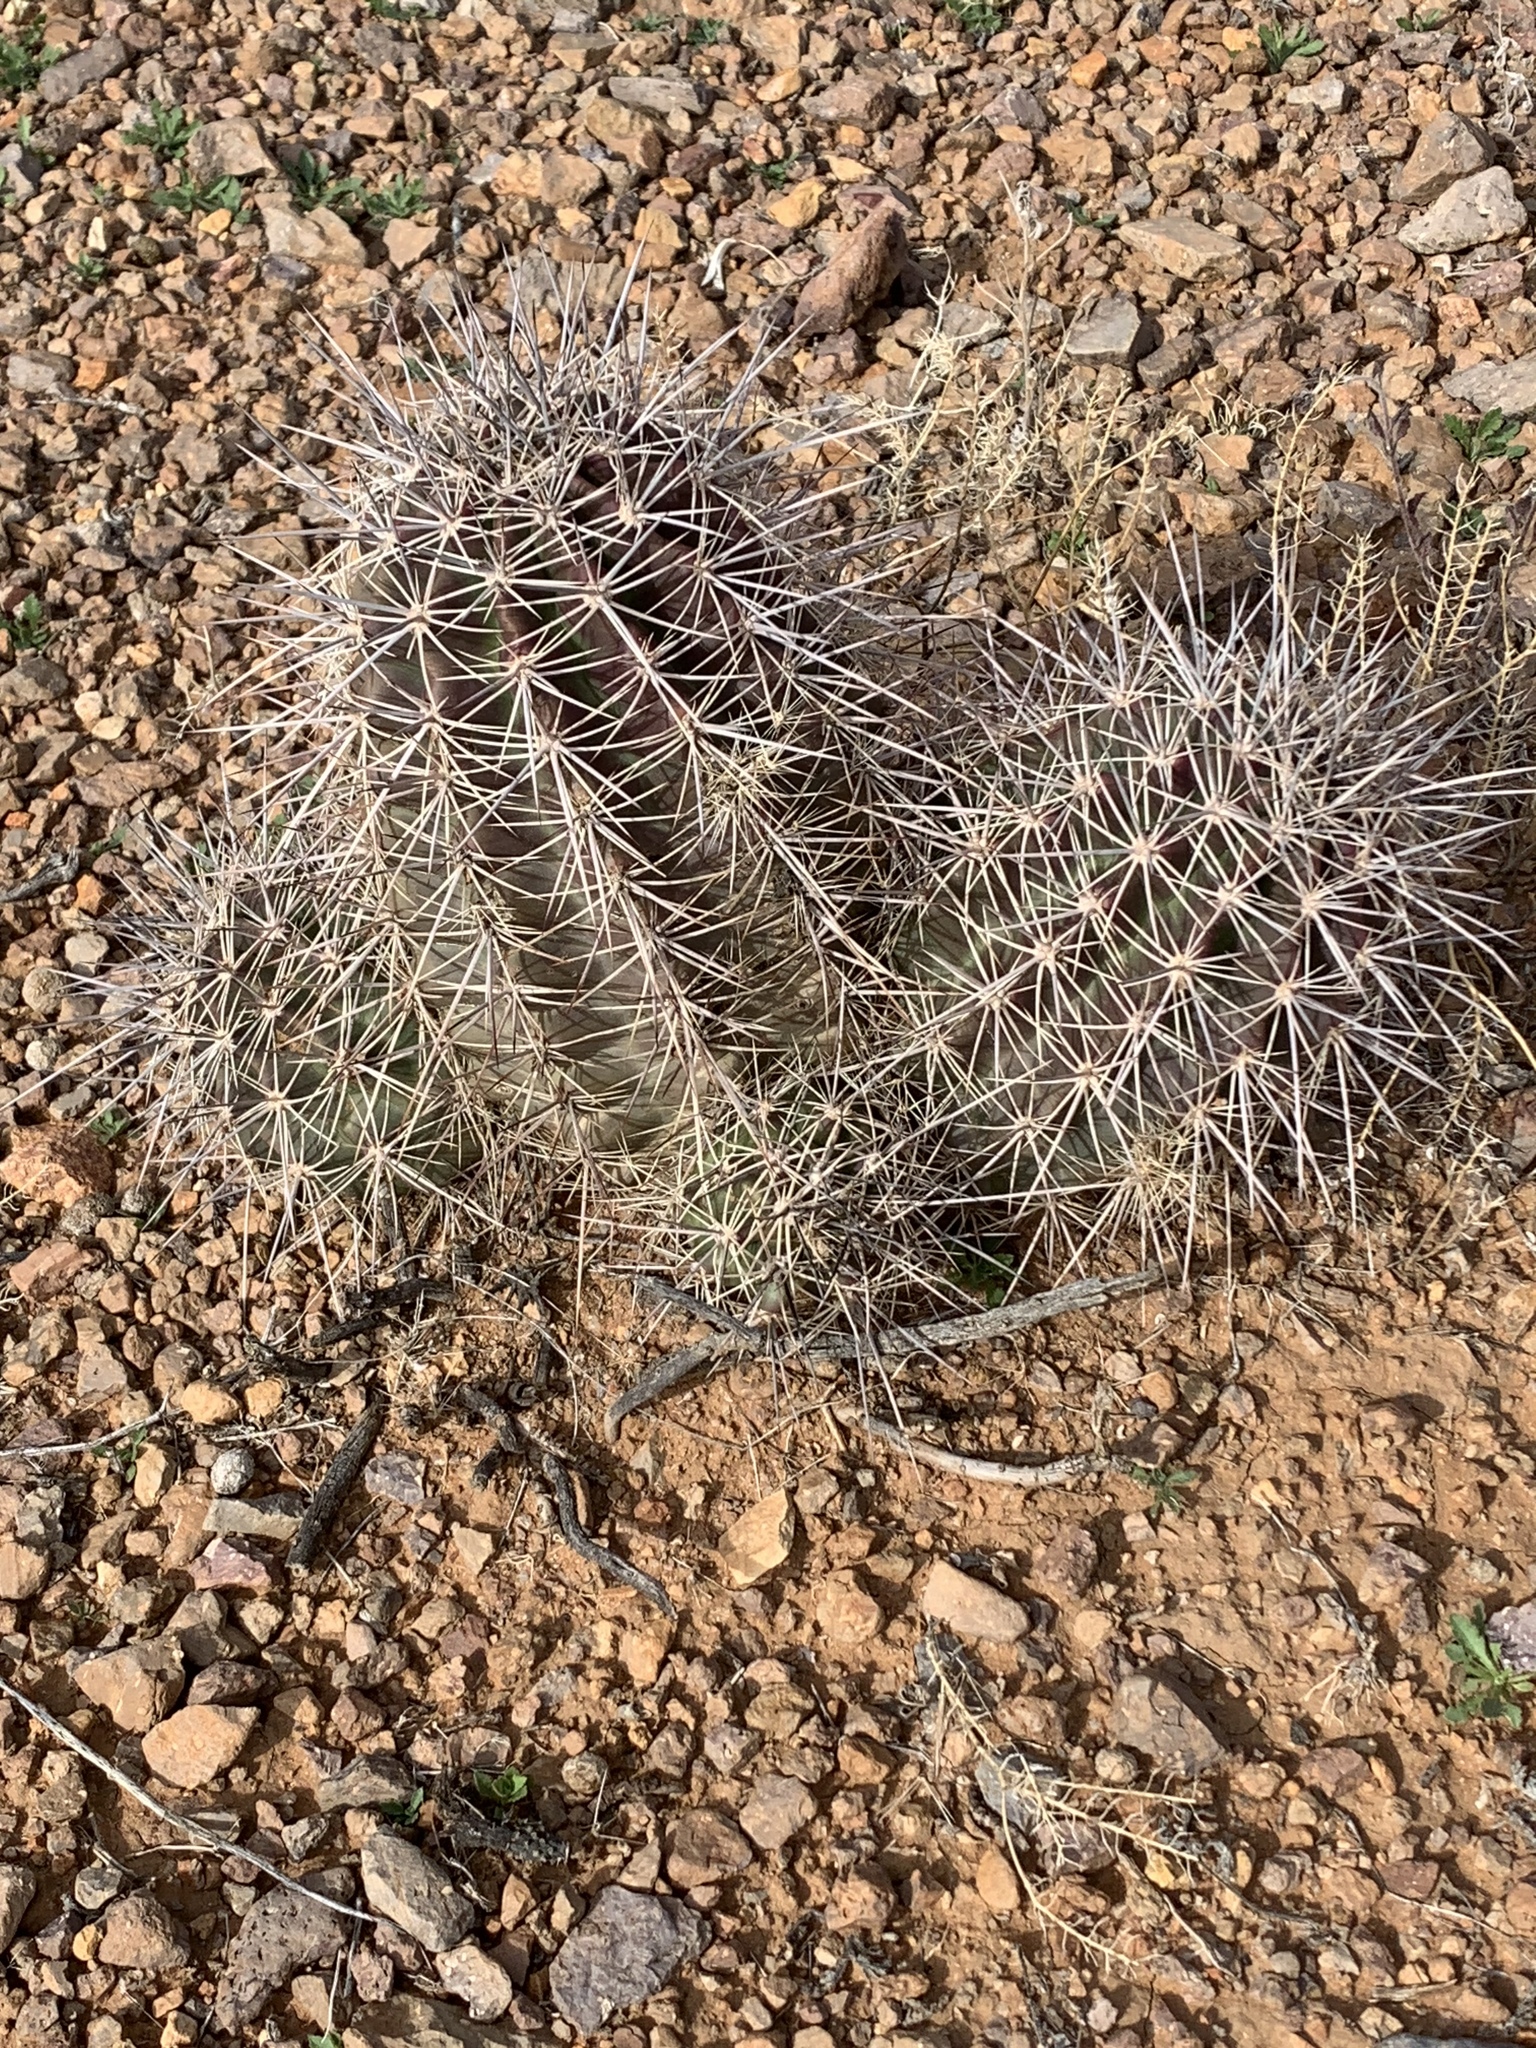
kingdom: Plantae
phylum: Tracheophyta
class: Magnoliopsida
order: Caryophyllales
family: Cactaceae
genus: Echinocereus
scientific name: Echinocereus coccineus
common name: Scarlet hedgehog cactus
